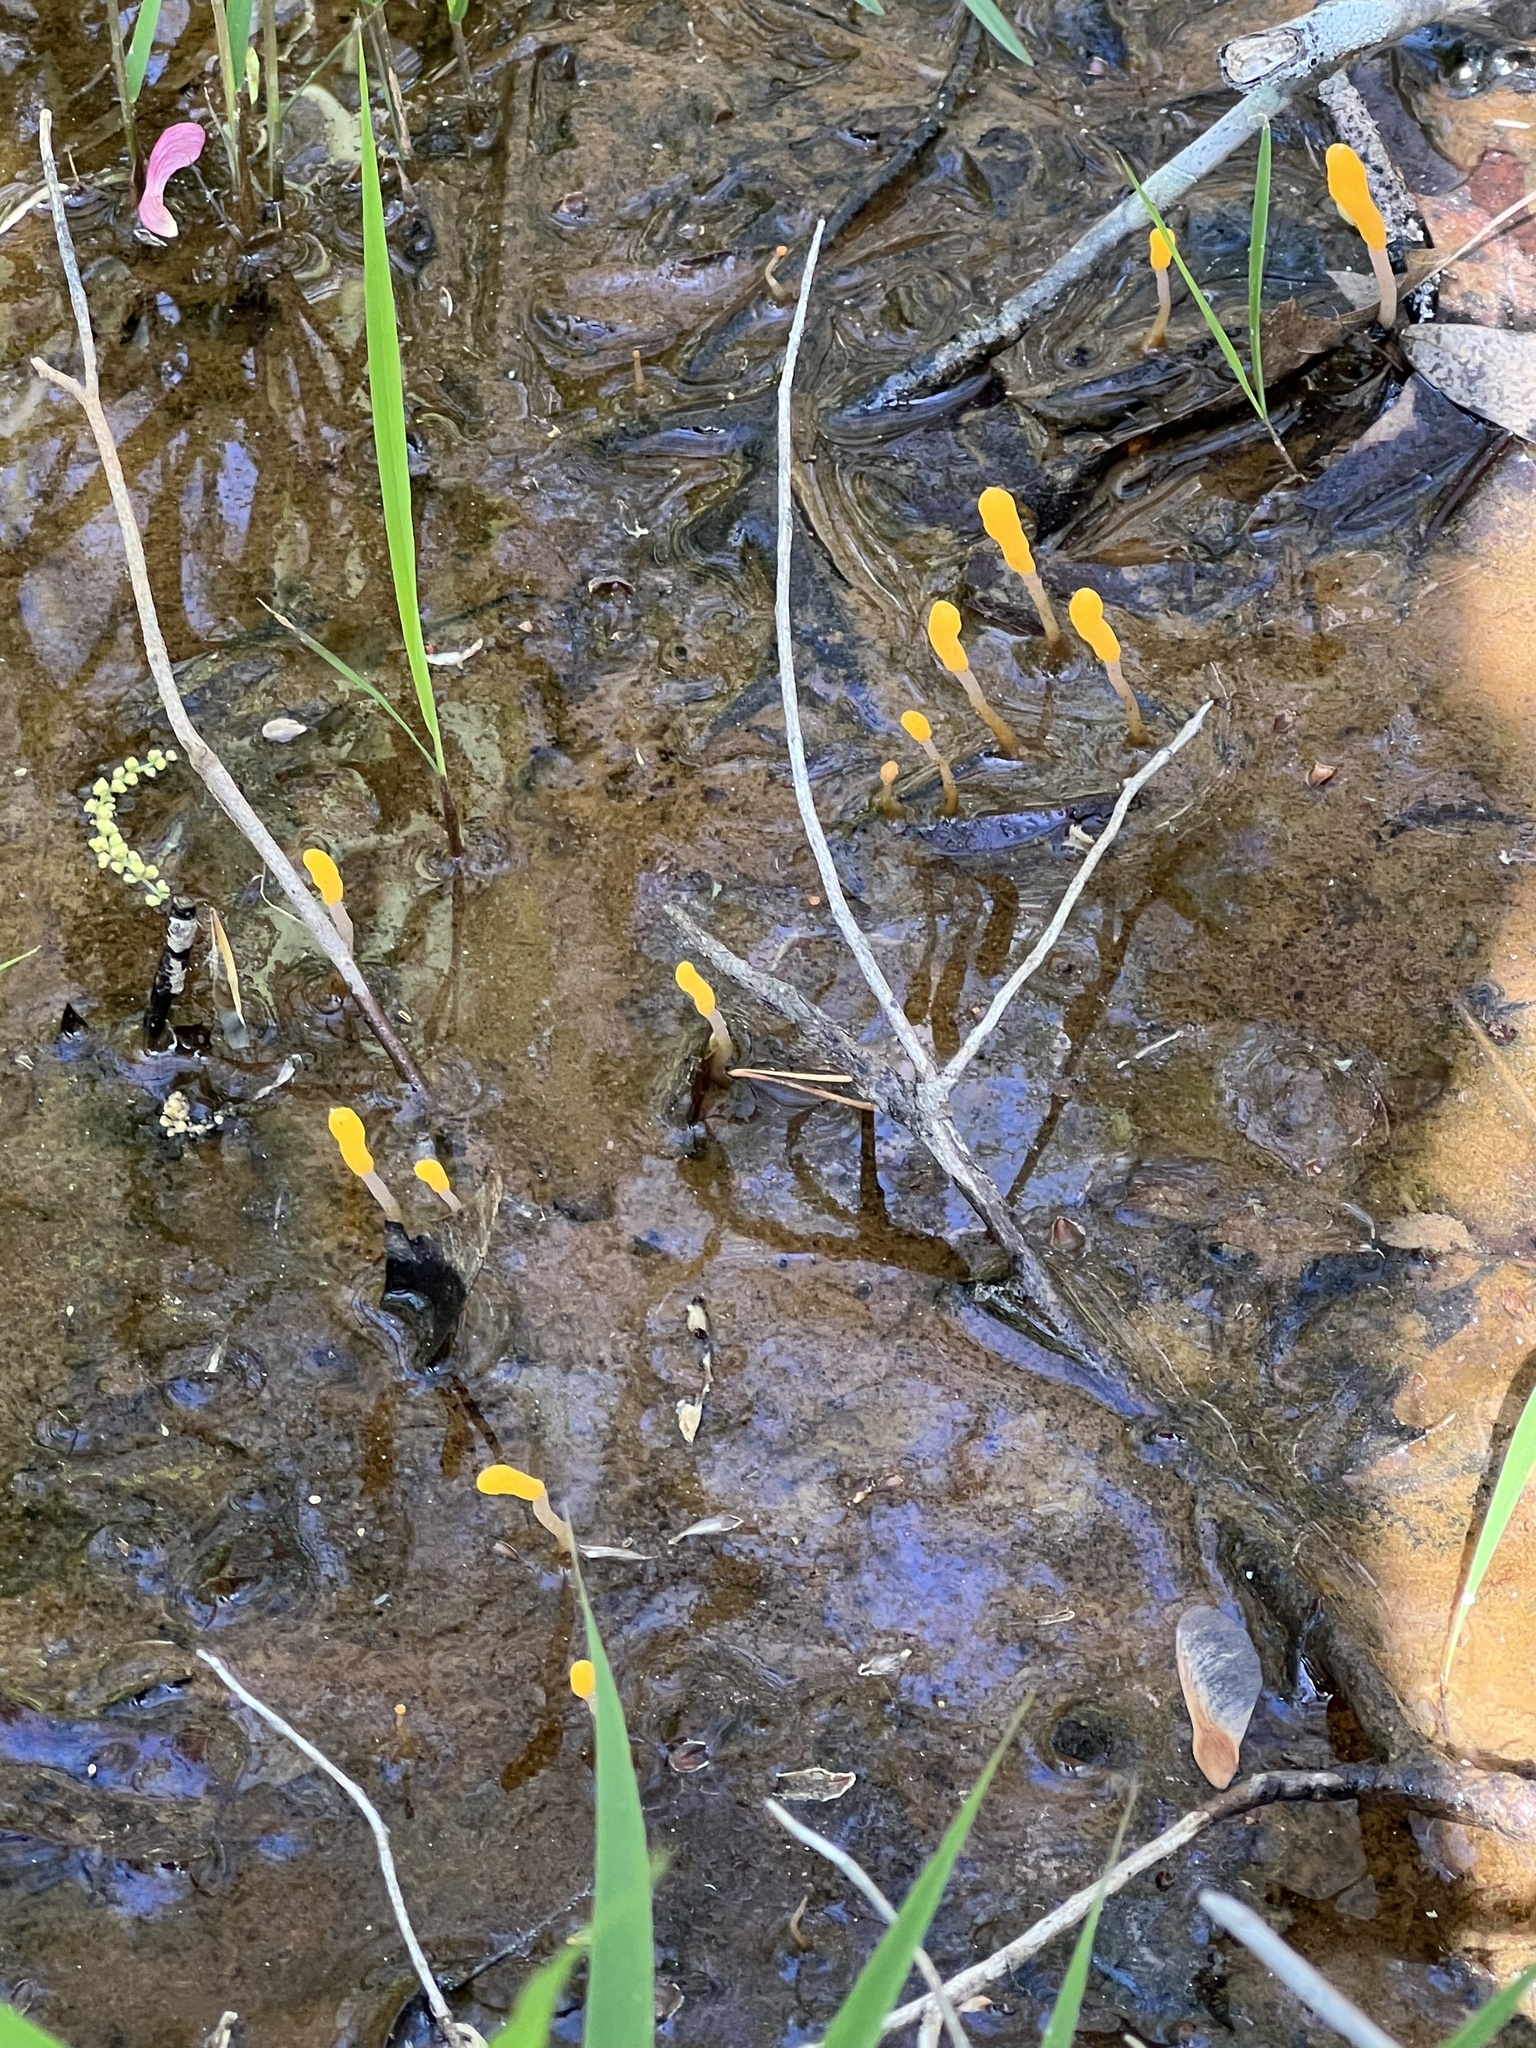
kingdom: Fungi
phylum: Ascomycota
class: Leotiomycetes
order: Helotiales
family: Sclerotiniaceae
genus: Mitrula
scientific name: Mitrula elegans
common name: Swamp beacon
